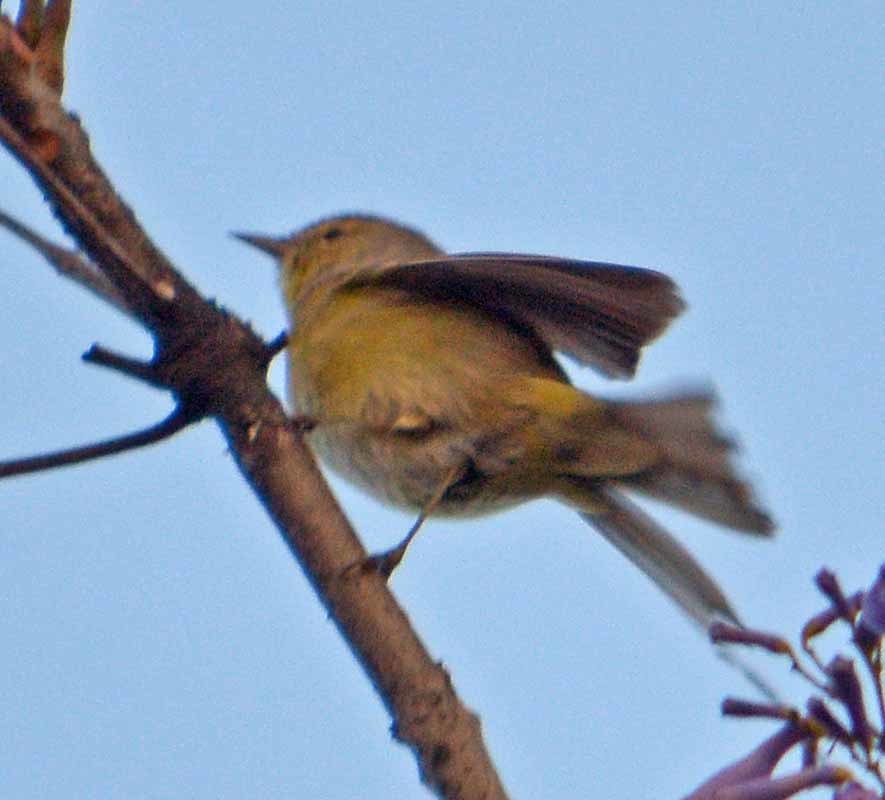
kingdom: Animalia
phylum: Chordata
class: Aves
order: Passeriformes
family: Parulidae
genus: Leiothlypis
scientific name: Leiothlypis celata
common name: Orange-crowned warbler
